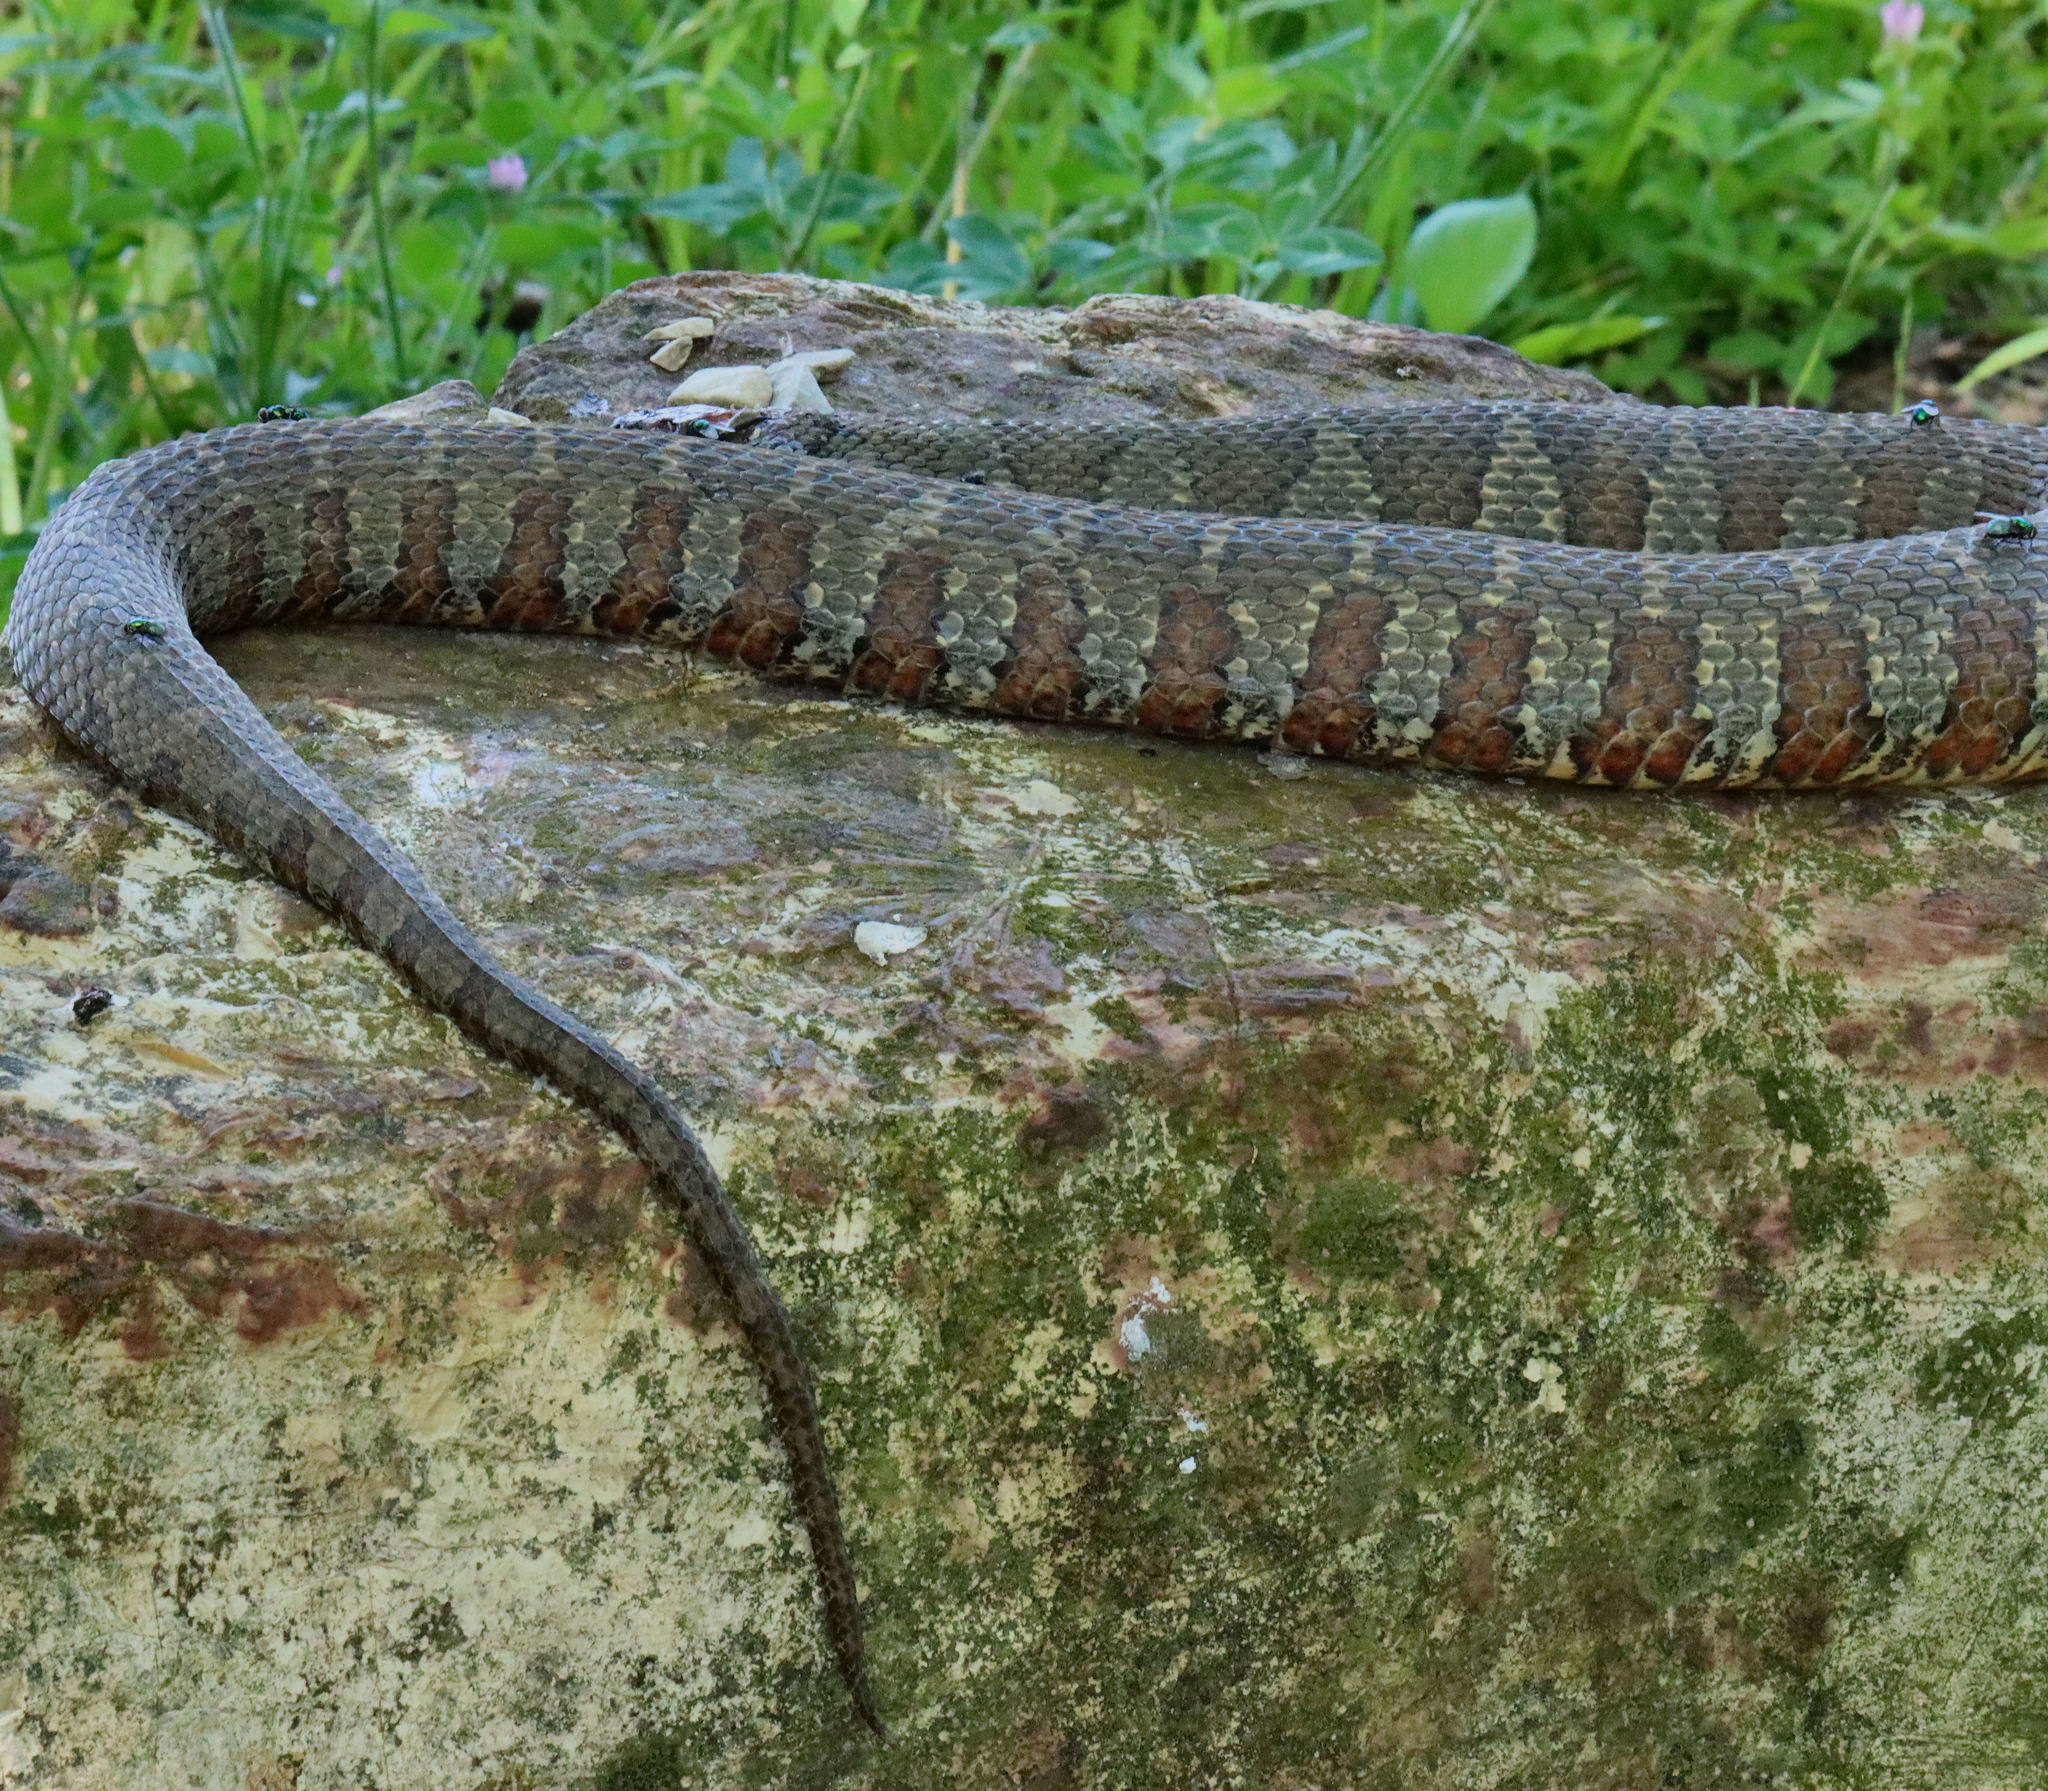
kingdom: Animalia
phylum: Chordata
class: Squamata
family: Colubridae
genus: Nerodia
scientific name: Nerodia sipedon
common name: Northern water snake
